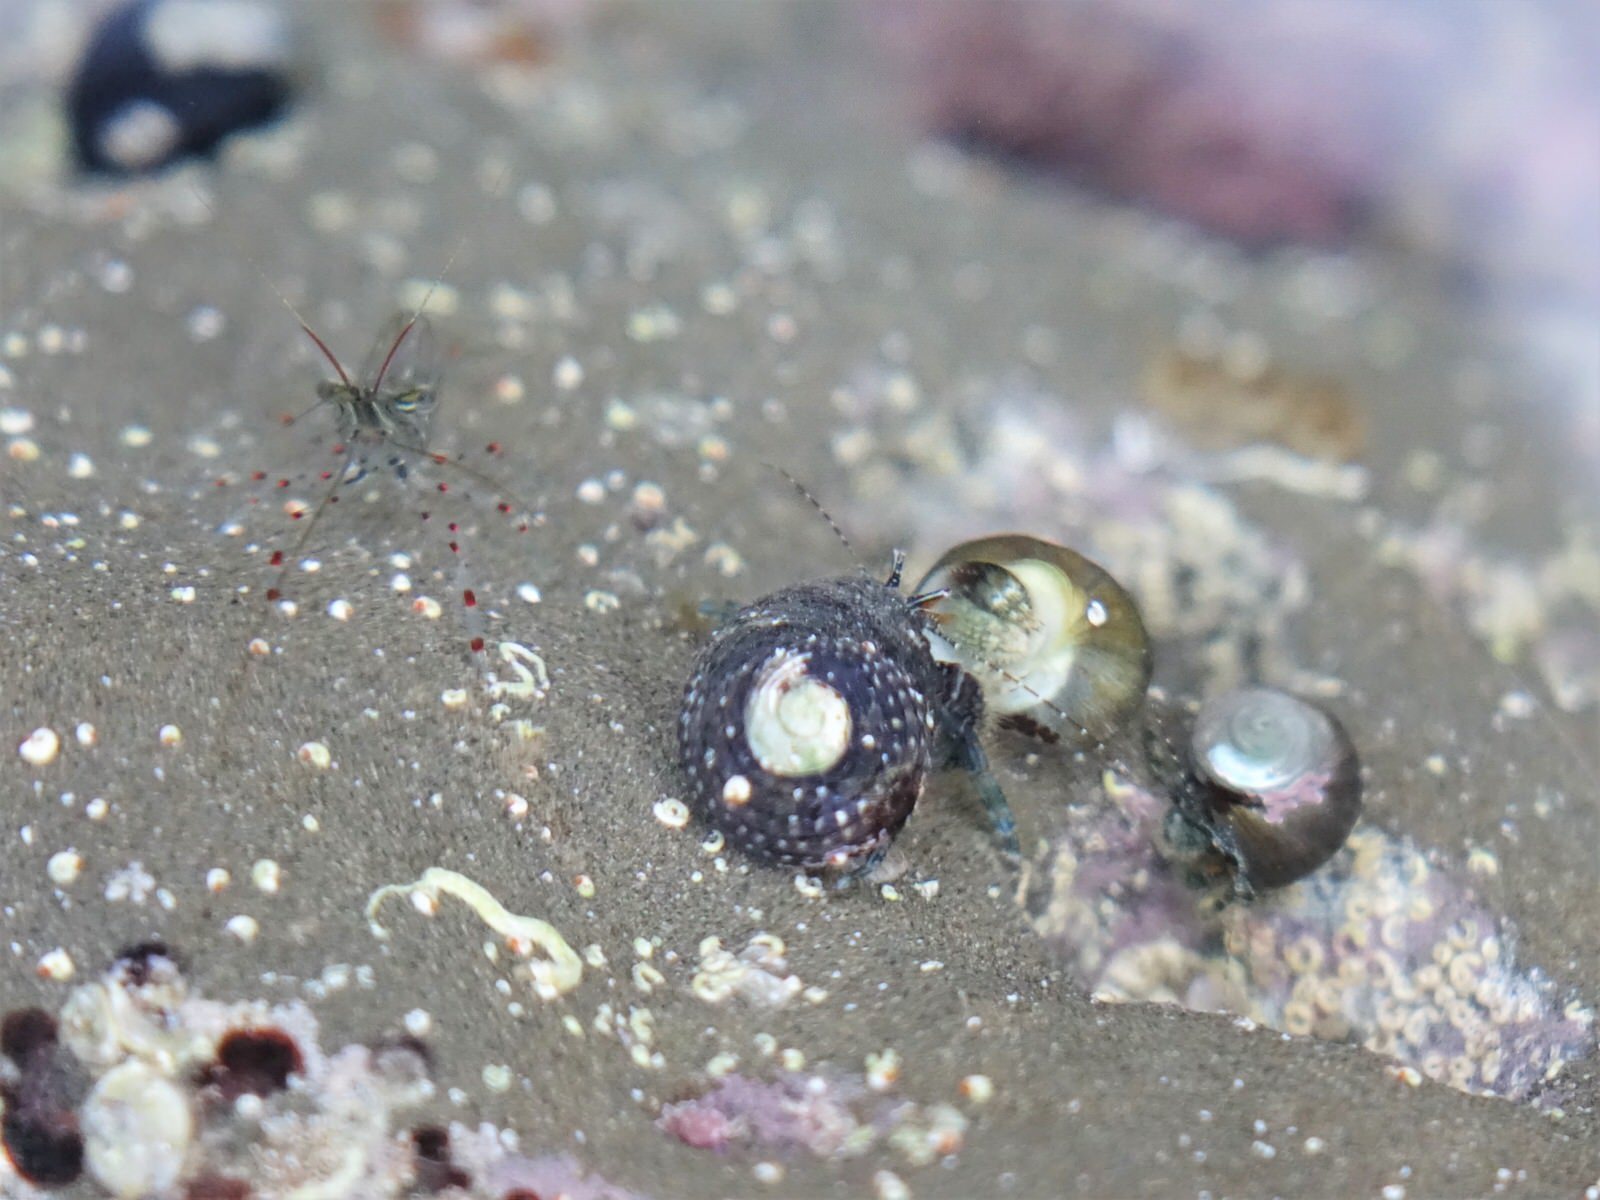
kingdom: Animalia
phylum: Arthropoda
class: Malacostraca
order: Decapoda
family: Paguridae
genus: Pagurus
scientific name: Pagurus traversi
